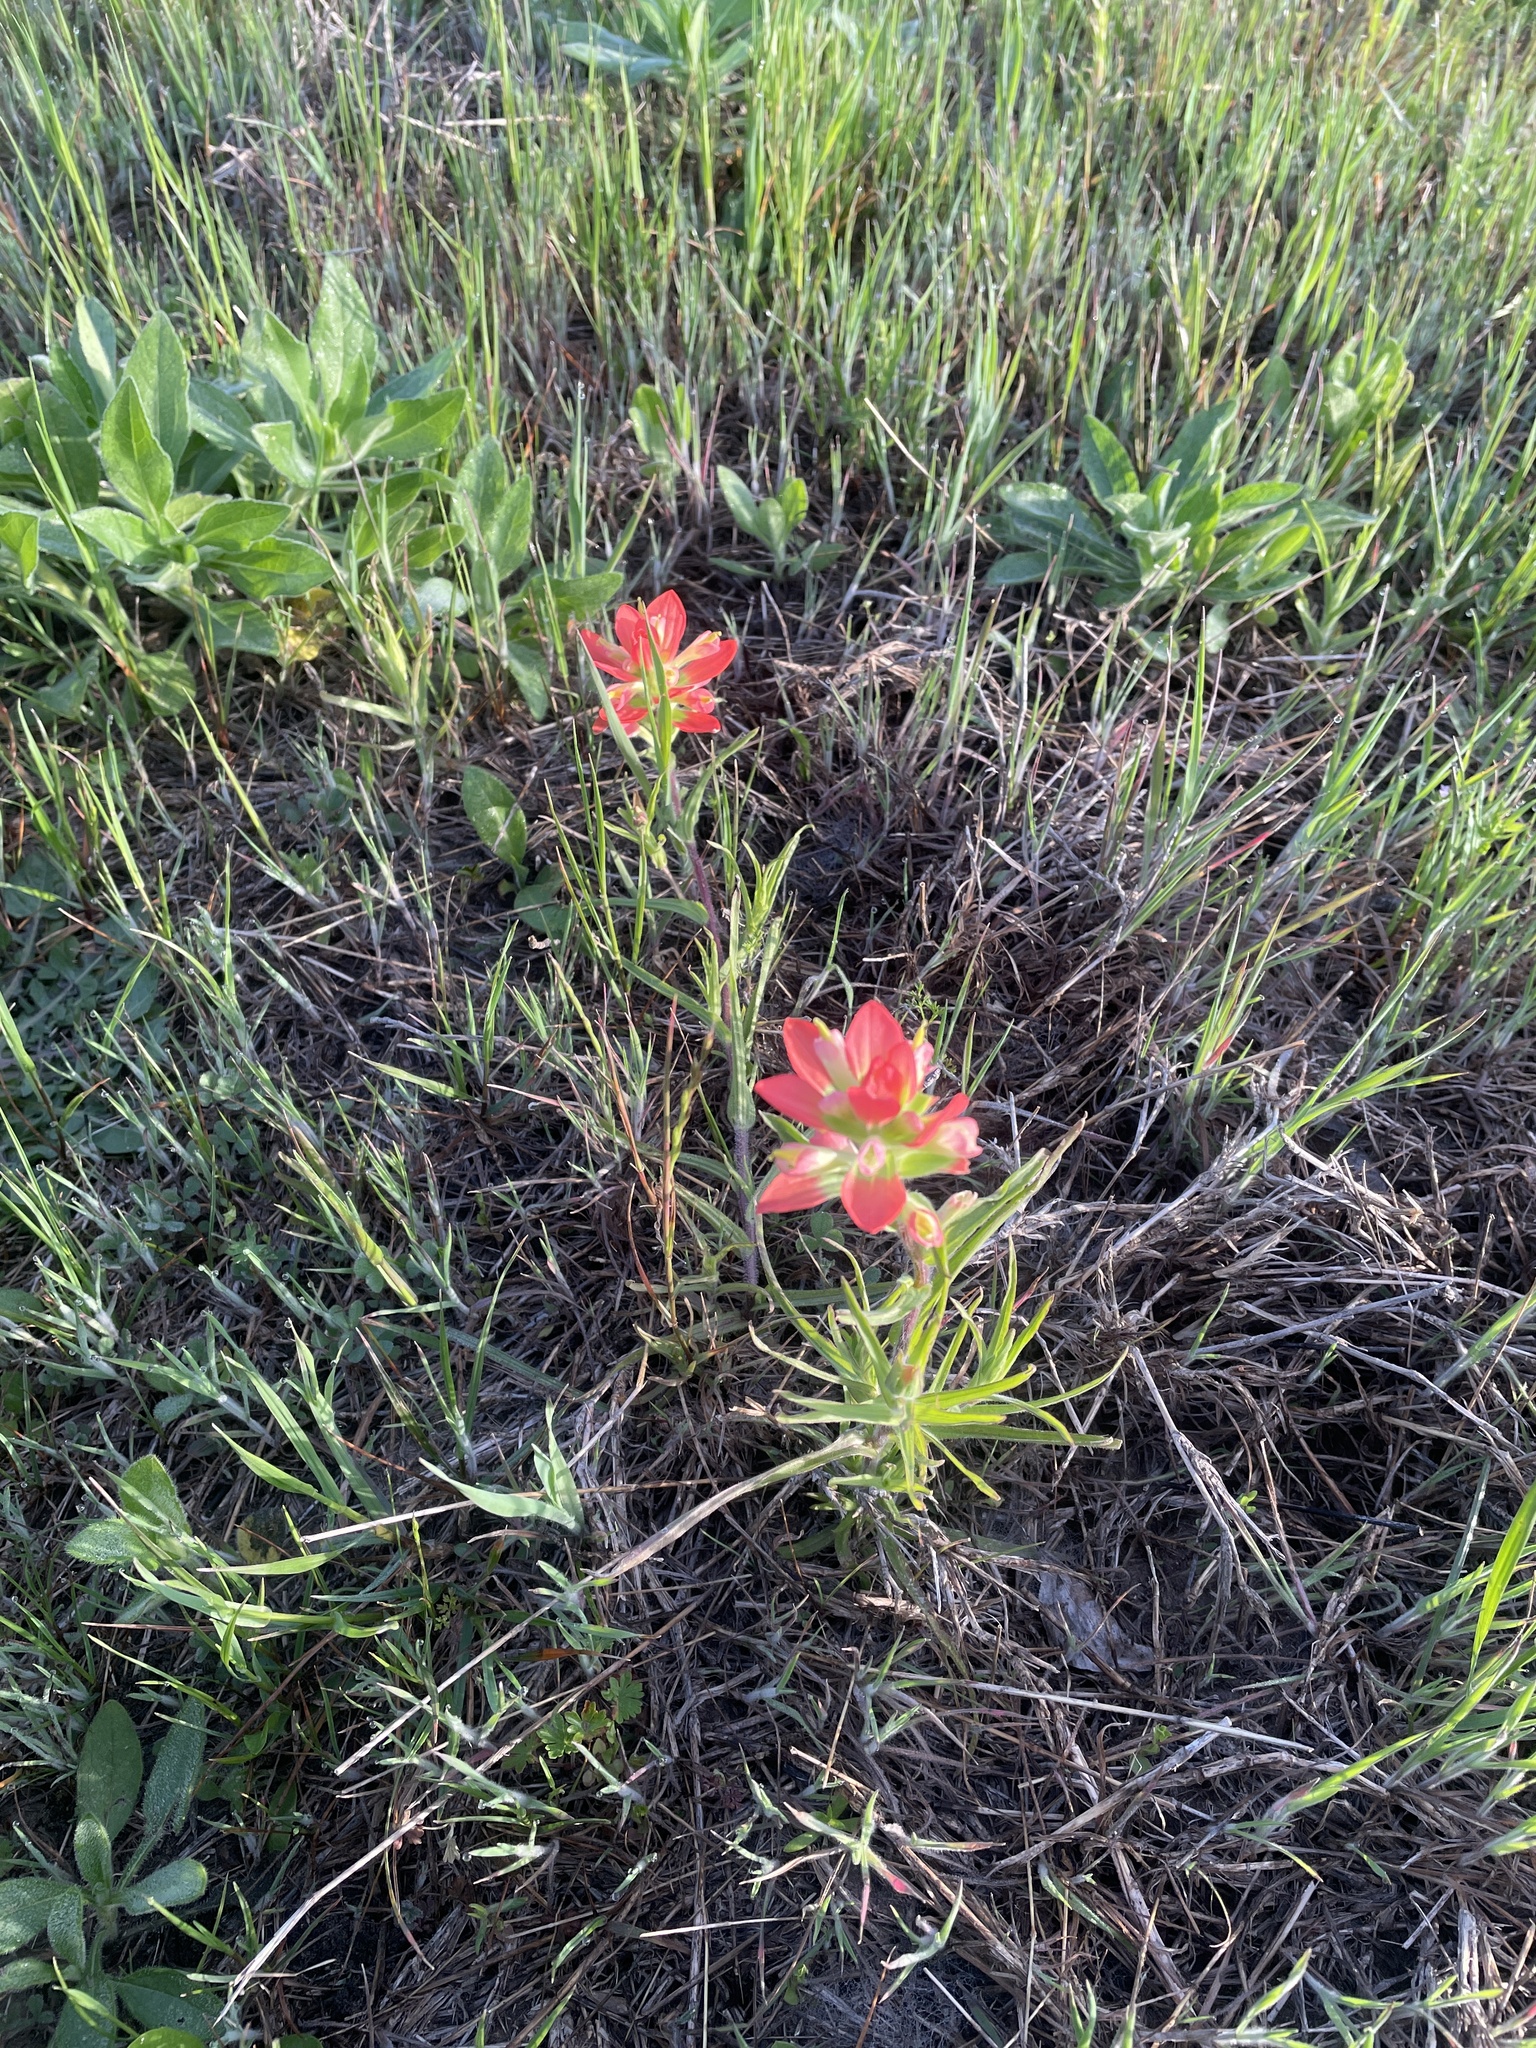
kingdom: Plantae
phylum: Tracheophyta
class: Magnoliopsida
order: Lamiales
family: Orobanchaceae
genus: Castilleja
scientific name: Castilleja indivisa
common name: Texas paintbrush
